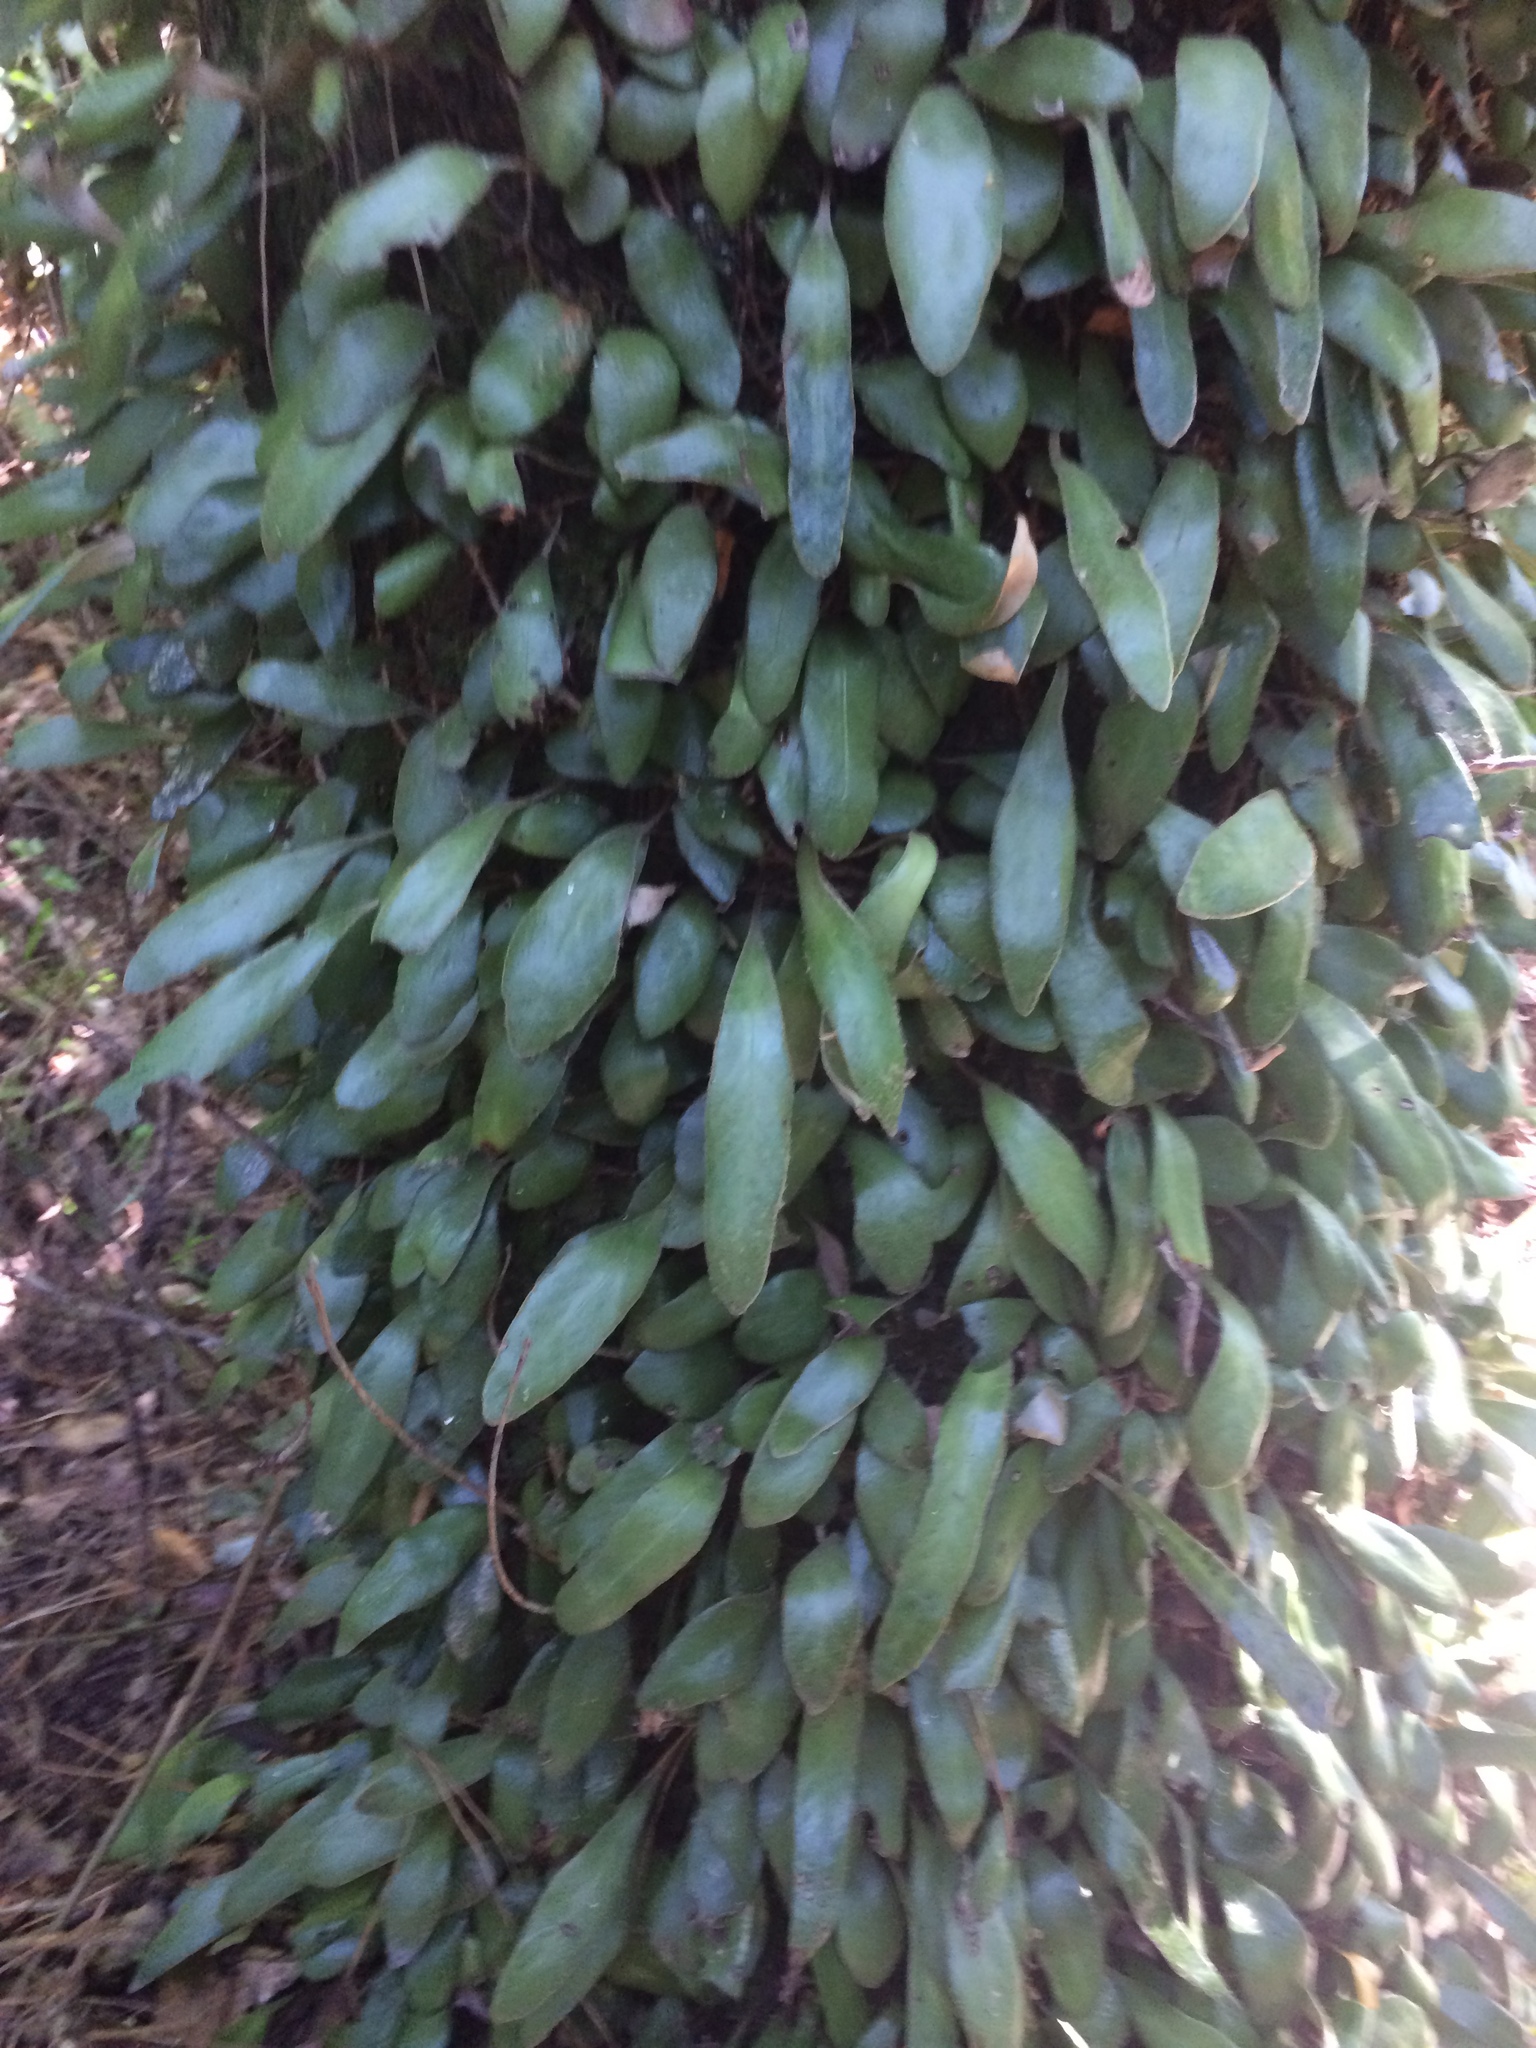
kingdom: Plantae
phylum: Tracheophyta
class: Polypodiopsida
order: Polypodiales
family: Polypodiaceae
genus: Pyrrosia
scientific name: Pyrrosia eleagnifolia
